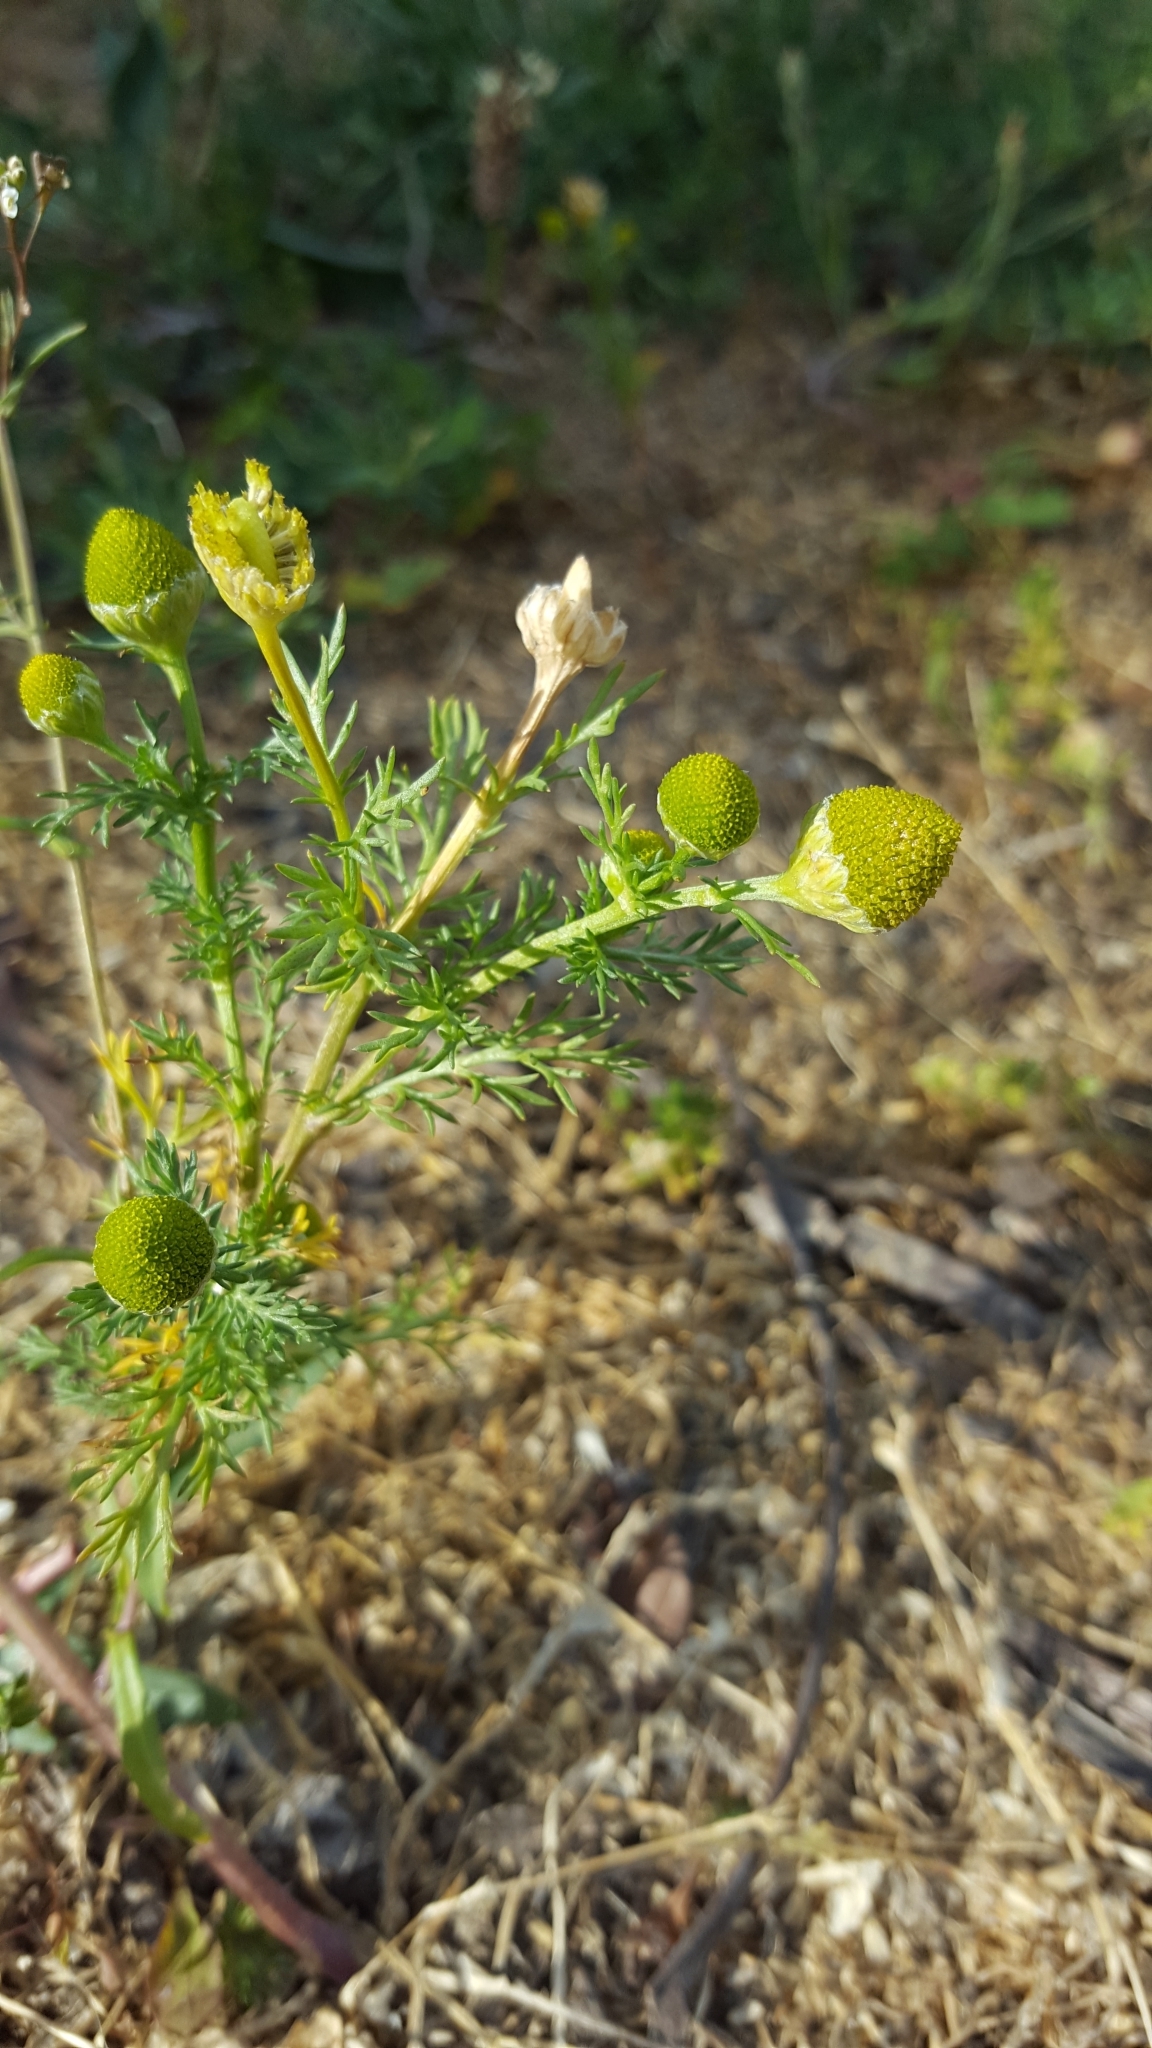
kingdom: Plantae
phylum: Tracheophyta
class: Magnoliopsida
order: Asterales
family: Asteraceae
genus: Matricaria
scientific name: Matricaria discoidea
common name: Disc mayweed
